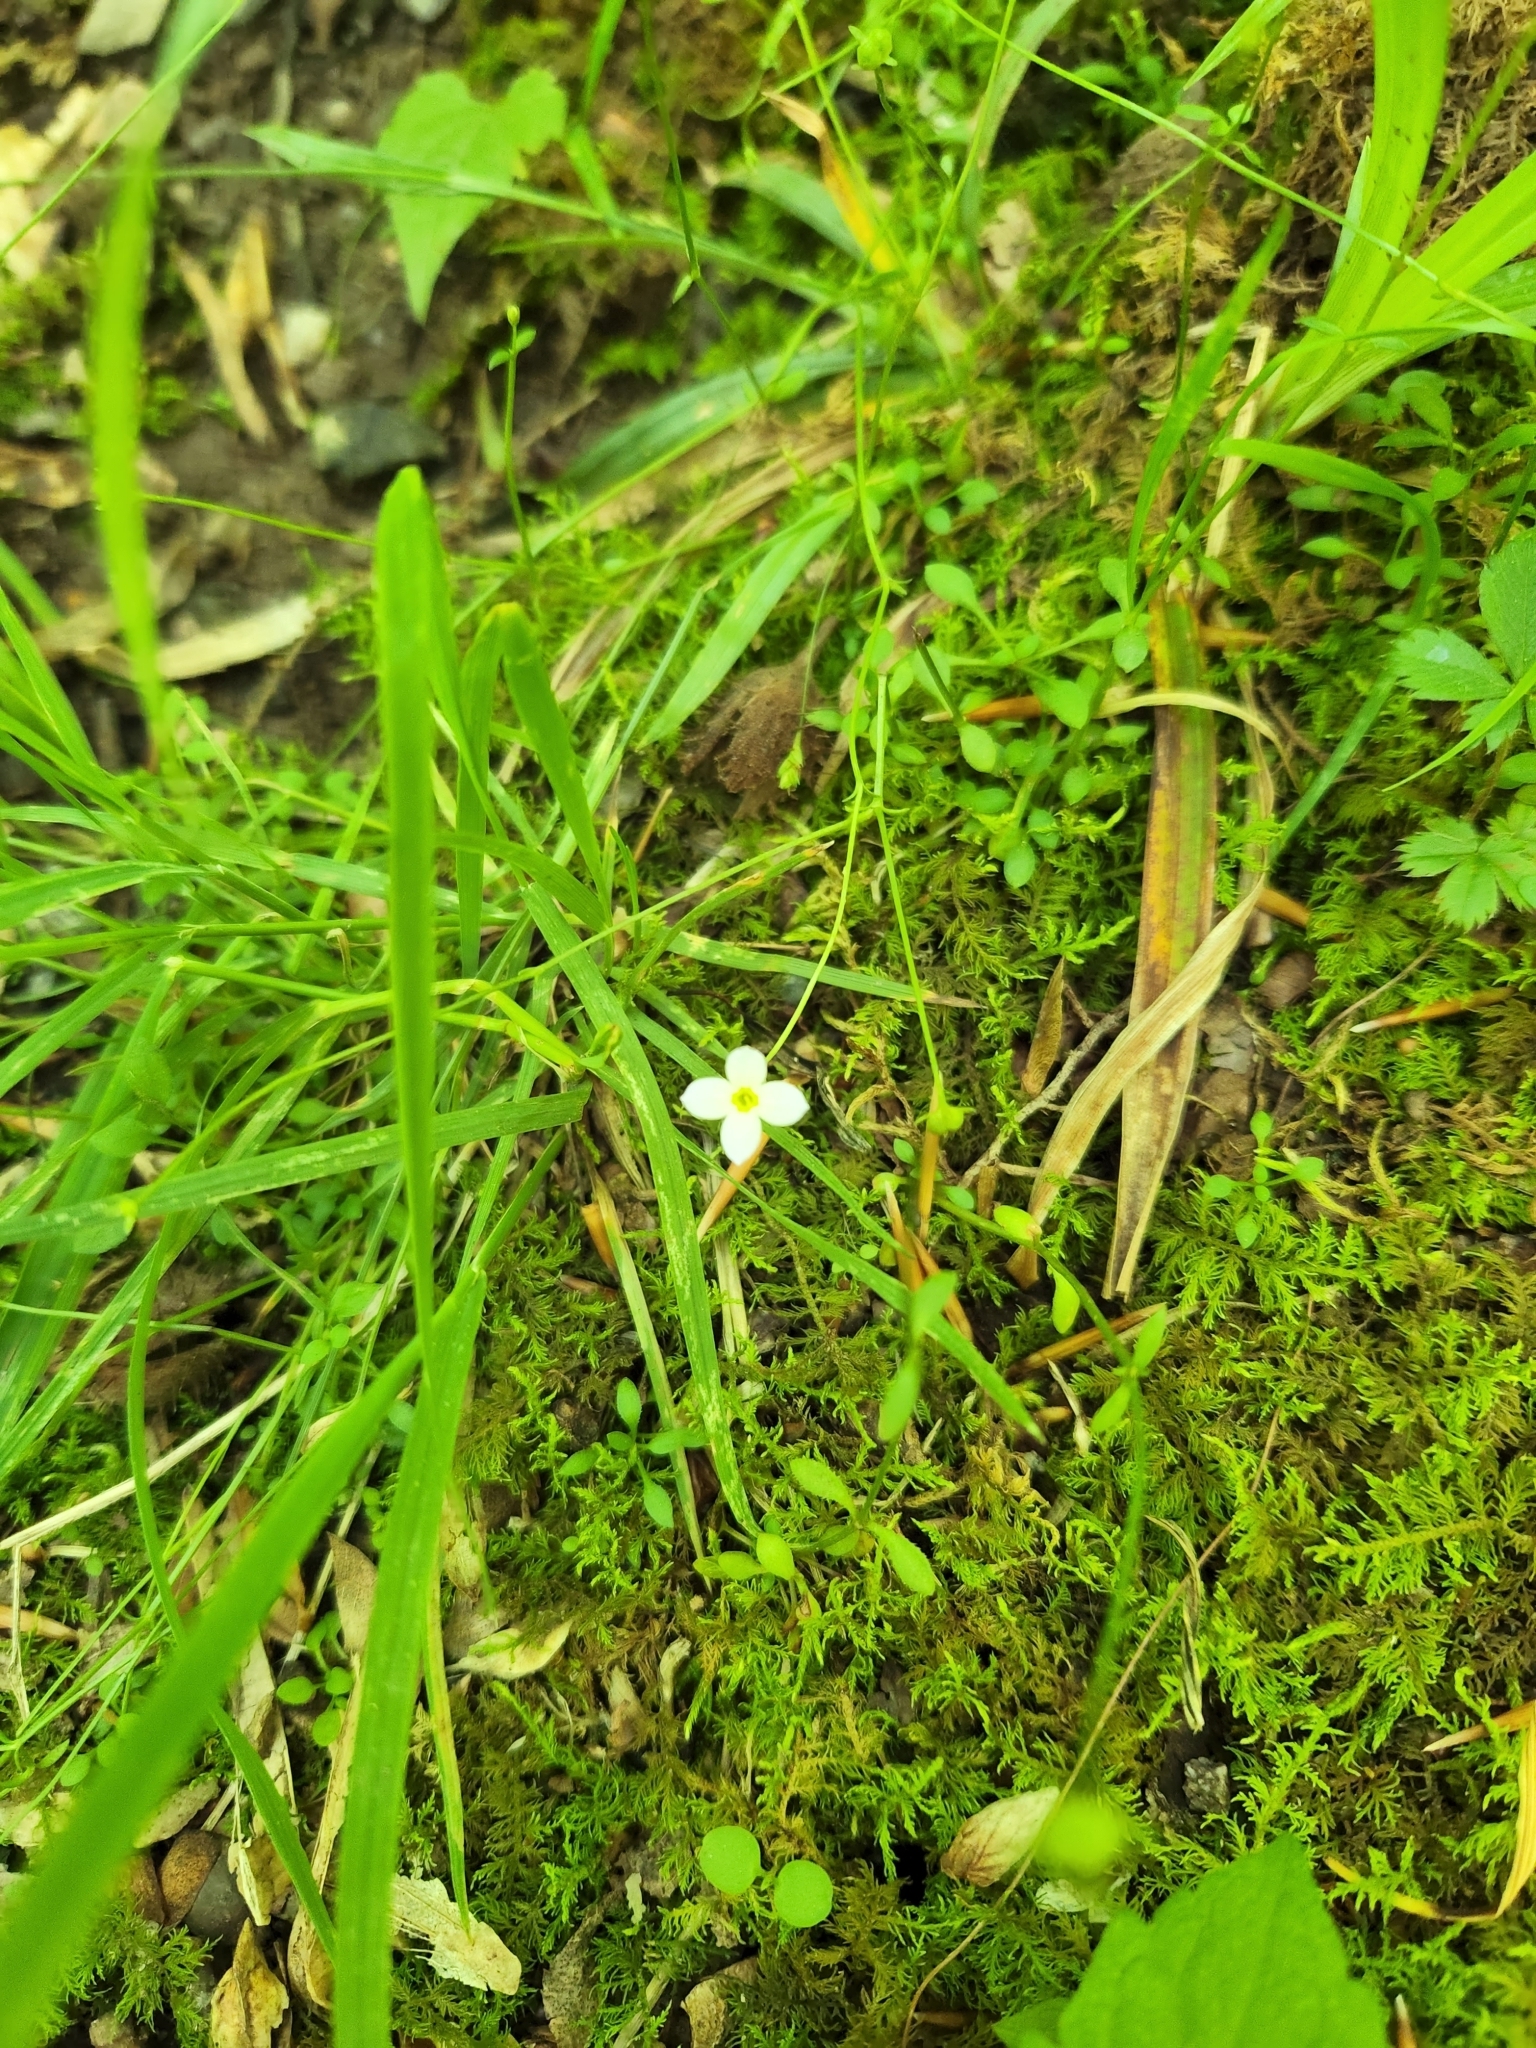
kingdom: Plantae
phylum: Tracheophyta
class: Magnoliopsida
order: Gentianales
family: Rubiaceae
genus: Houstonia
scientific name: Houstonia caerulea
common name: Bluets
